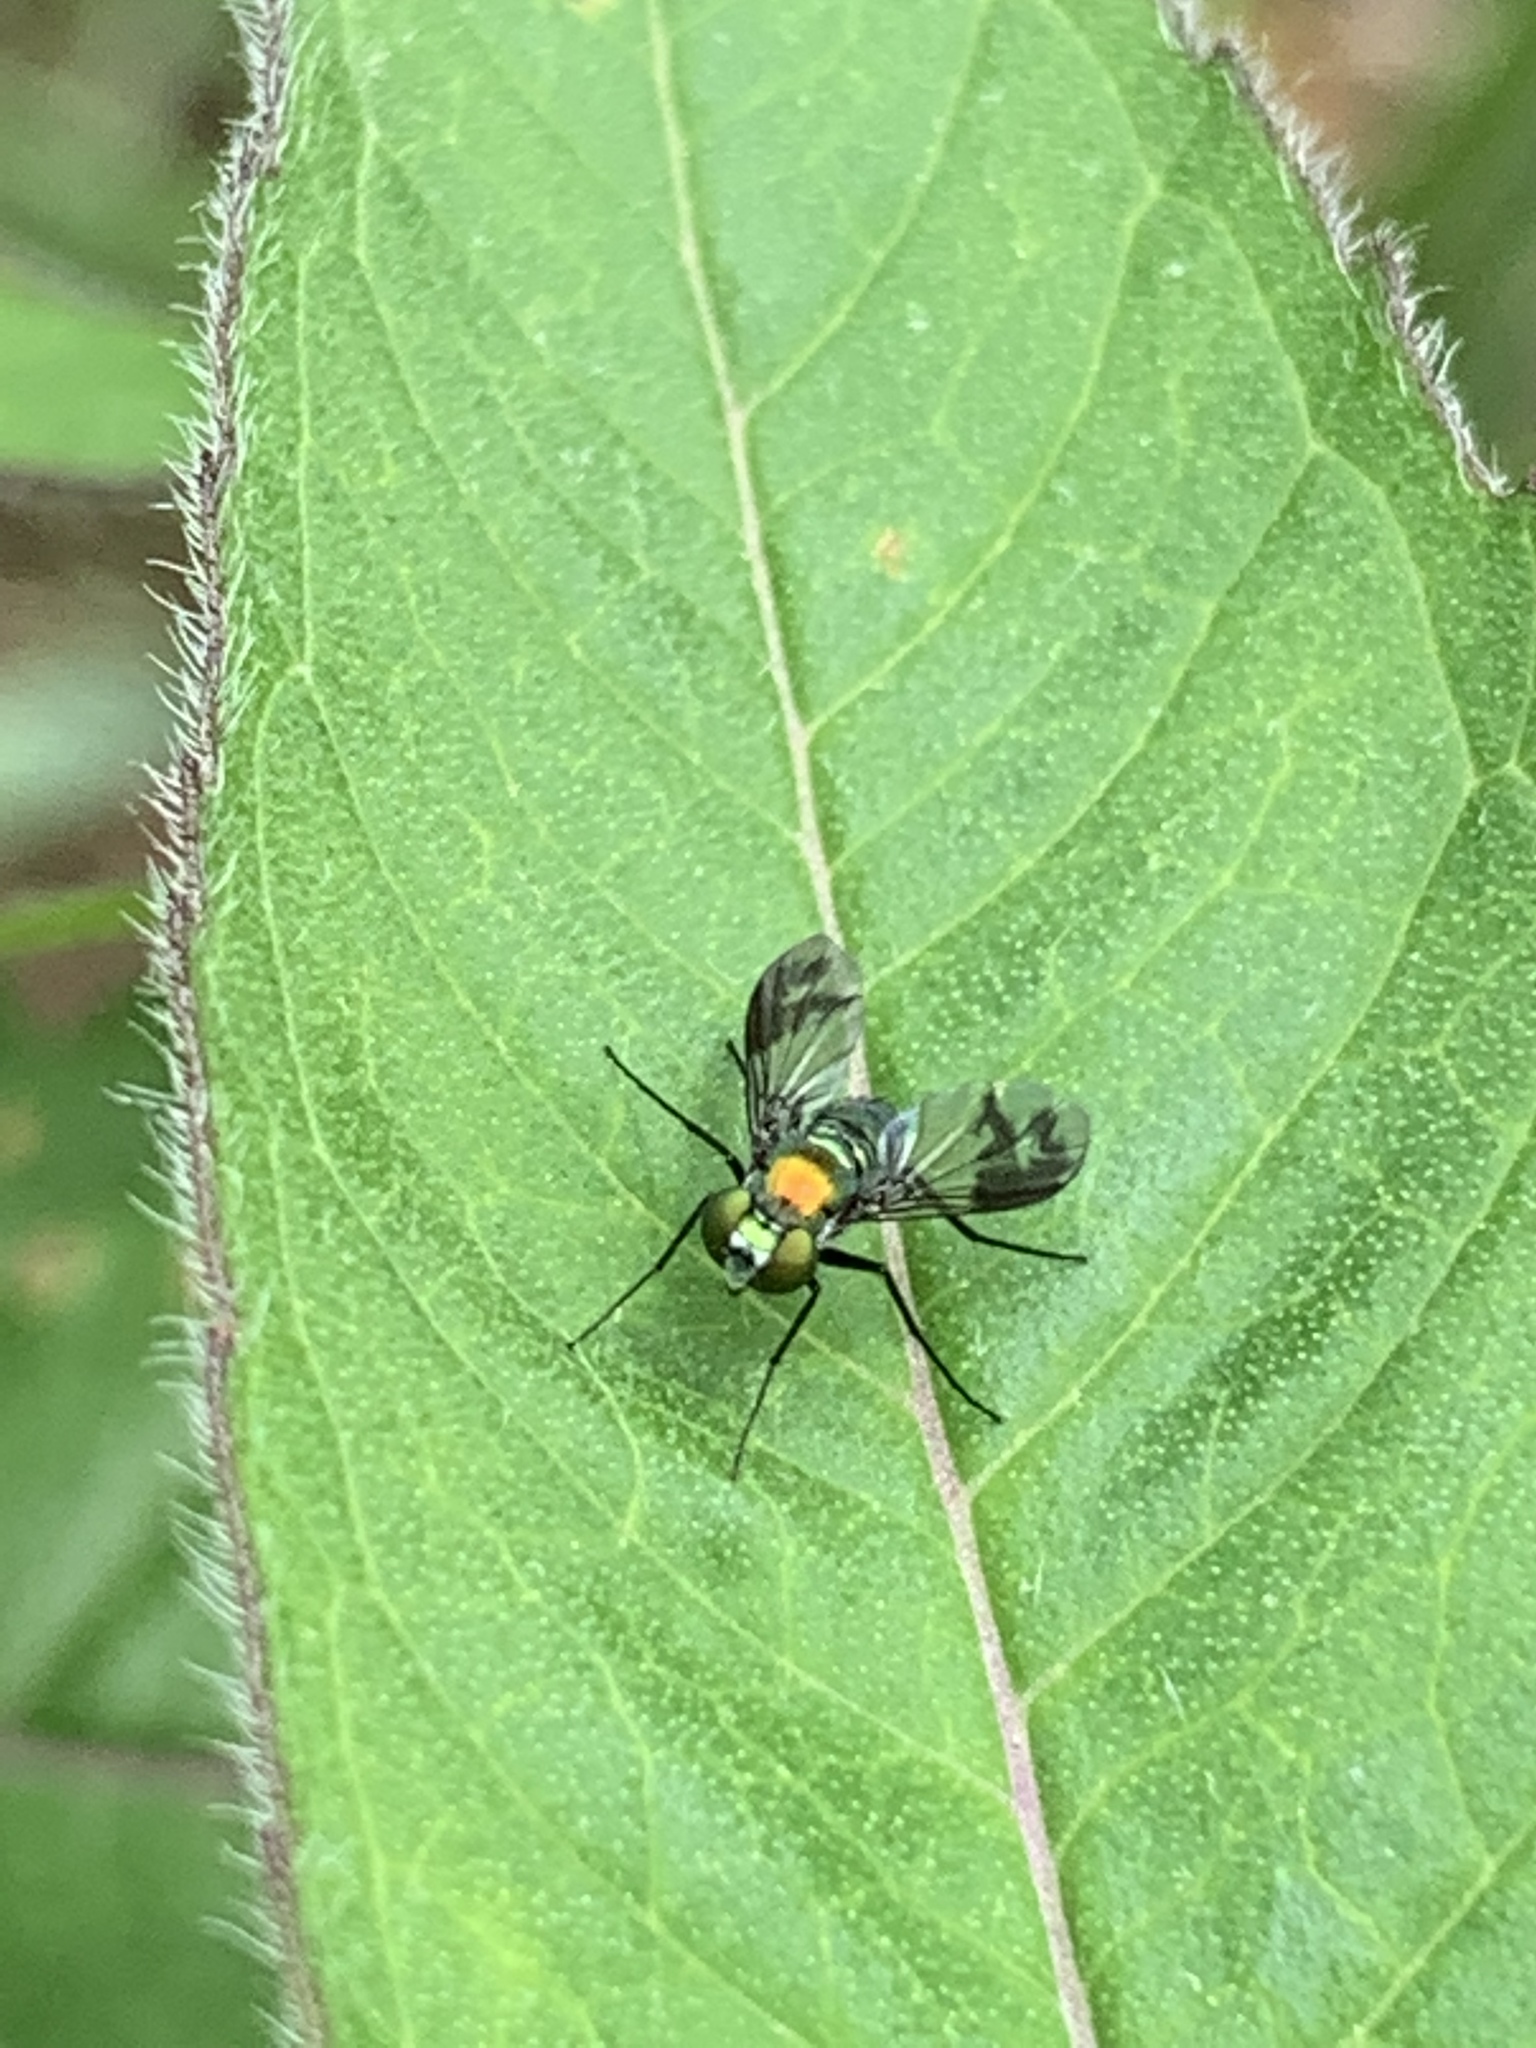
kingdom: Animalia
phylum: Arthropoda
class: Insecta
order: Diptera
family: Dolichopodidae
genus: Condylostylus
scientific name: Condylostylus patibulatus
